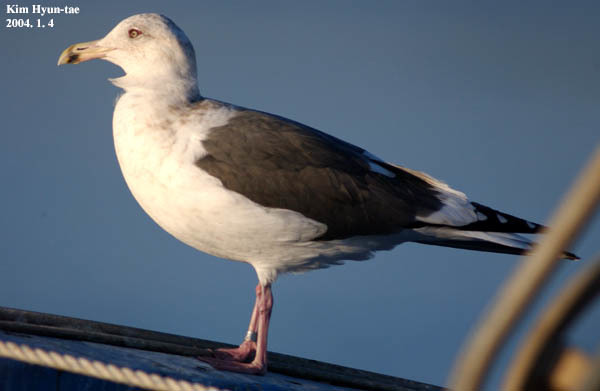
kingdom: Animalia
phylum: Chordata
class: Aves
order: Charadriiformes
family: Laridae
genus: Larus
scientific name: Larus schistisagus
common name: Slaty-backed gull
